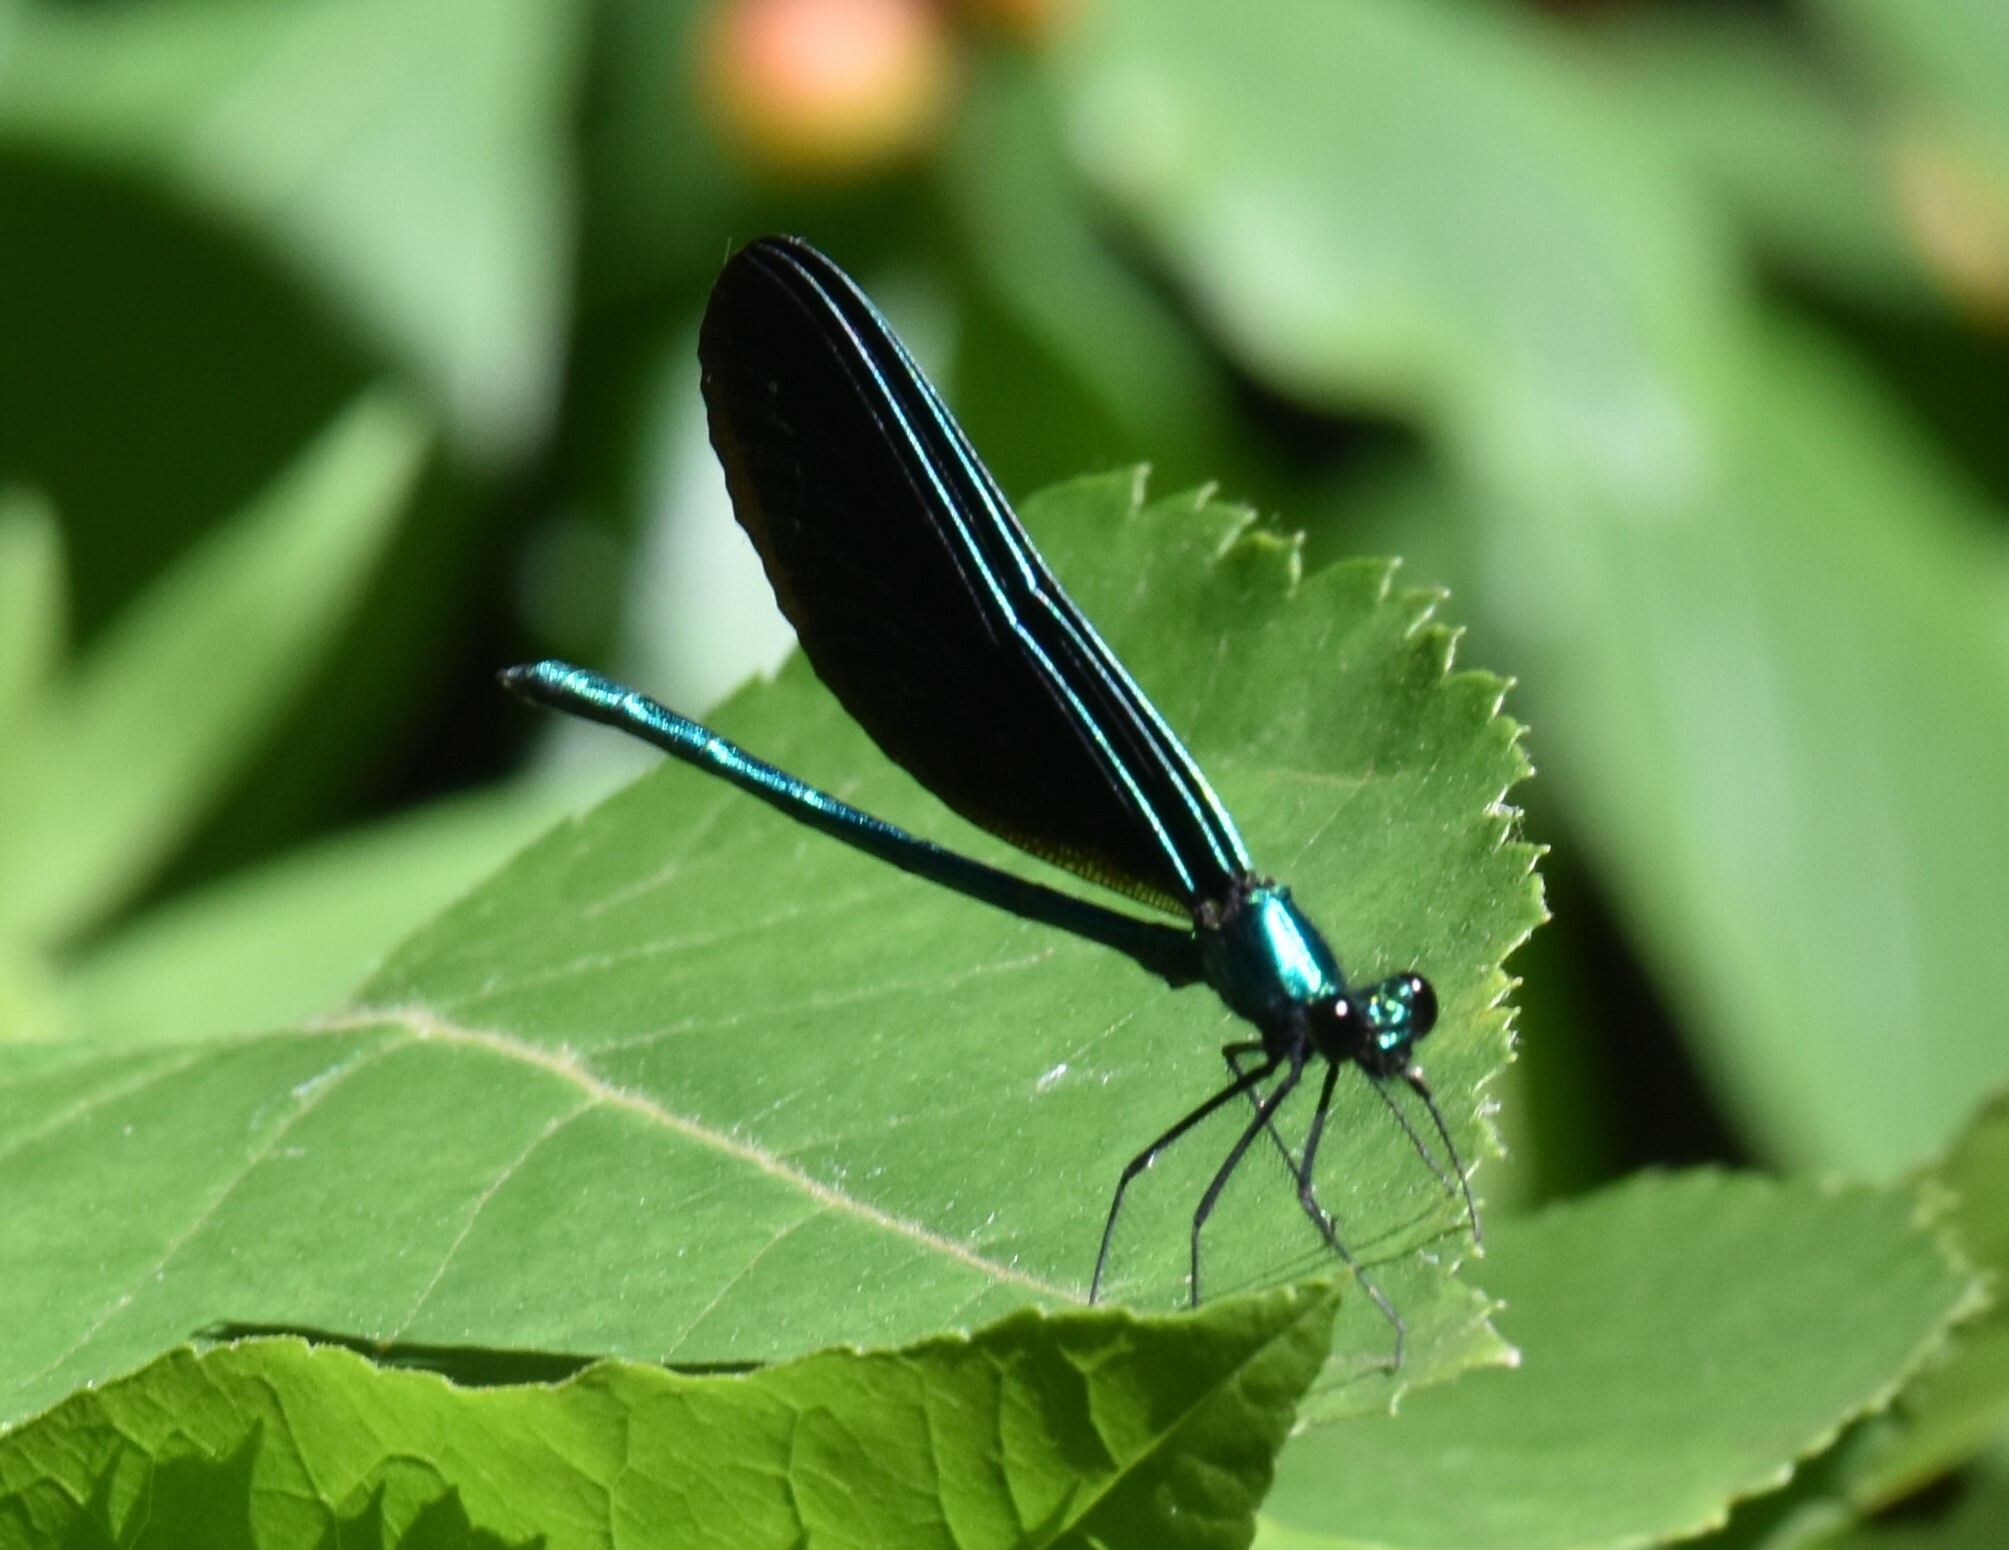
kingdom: Animalia
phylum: Arthropoda
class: Insecta
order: Odonata
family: Calopterygidae
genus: Calopteryx
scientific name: Calopteryx maculata
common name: Ebony jewelwing
